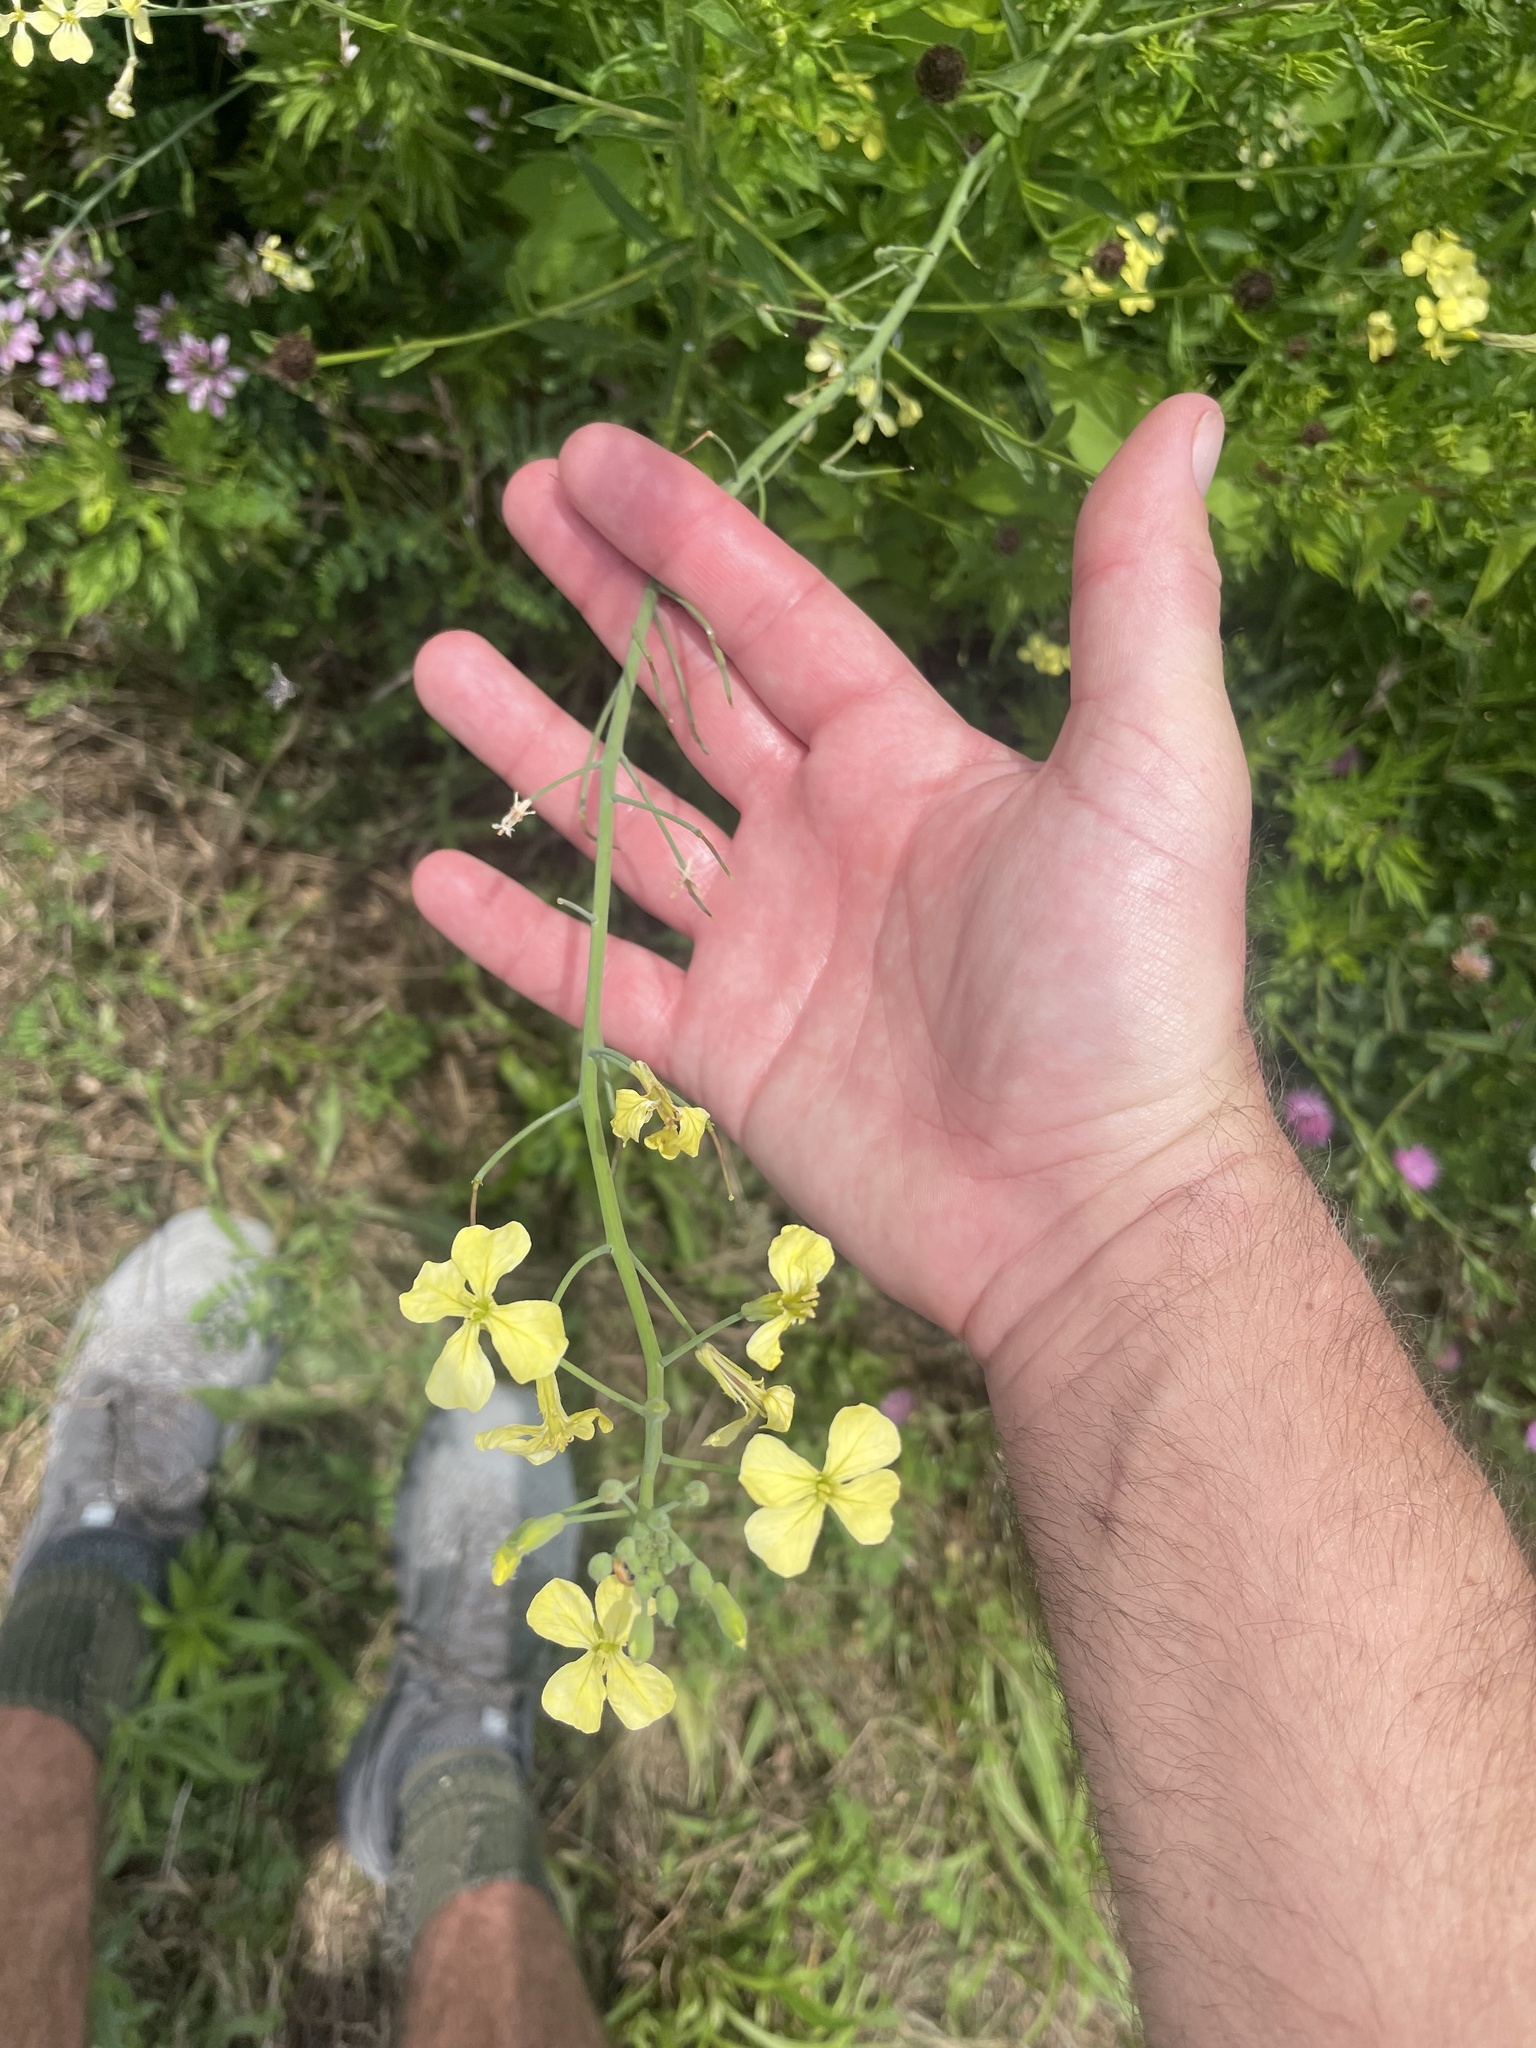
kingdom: Plantae
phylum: Tracheophyta
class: Magnoliopsida
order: Brassicales
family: Brassicaceae
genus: Raphanus
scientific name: Raphanus raphanistrum
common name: Wild radish
